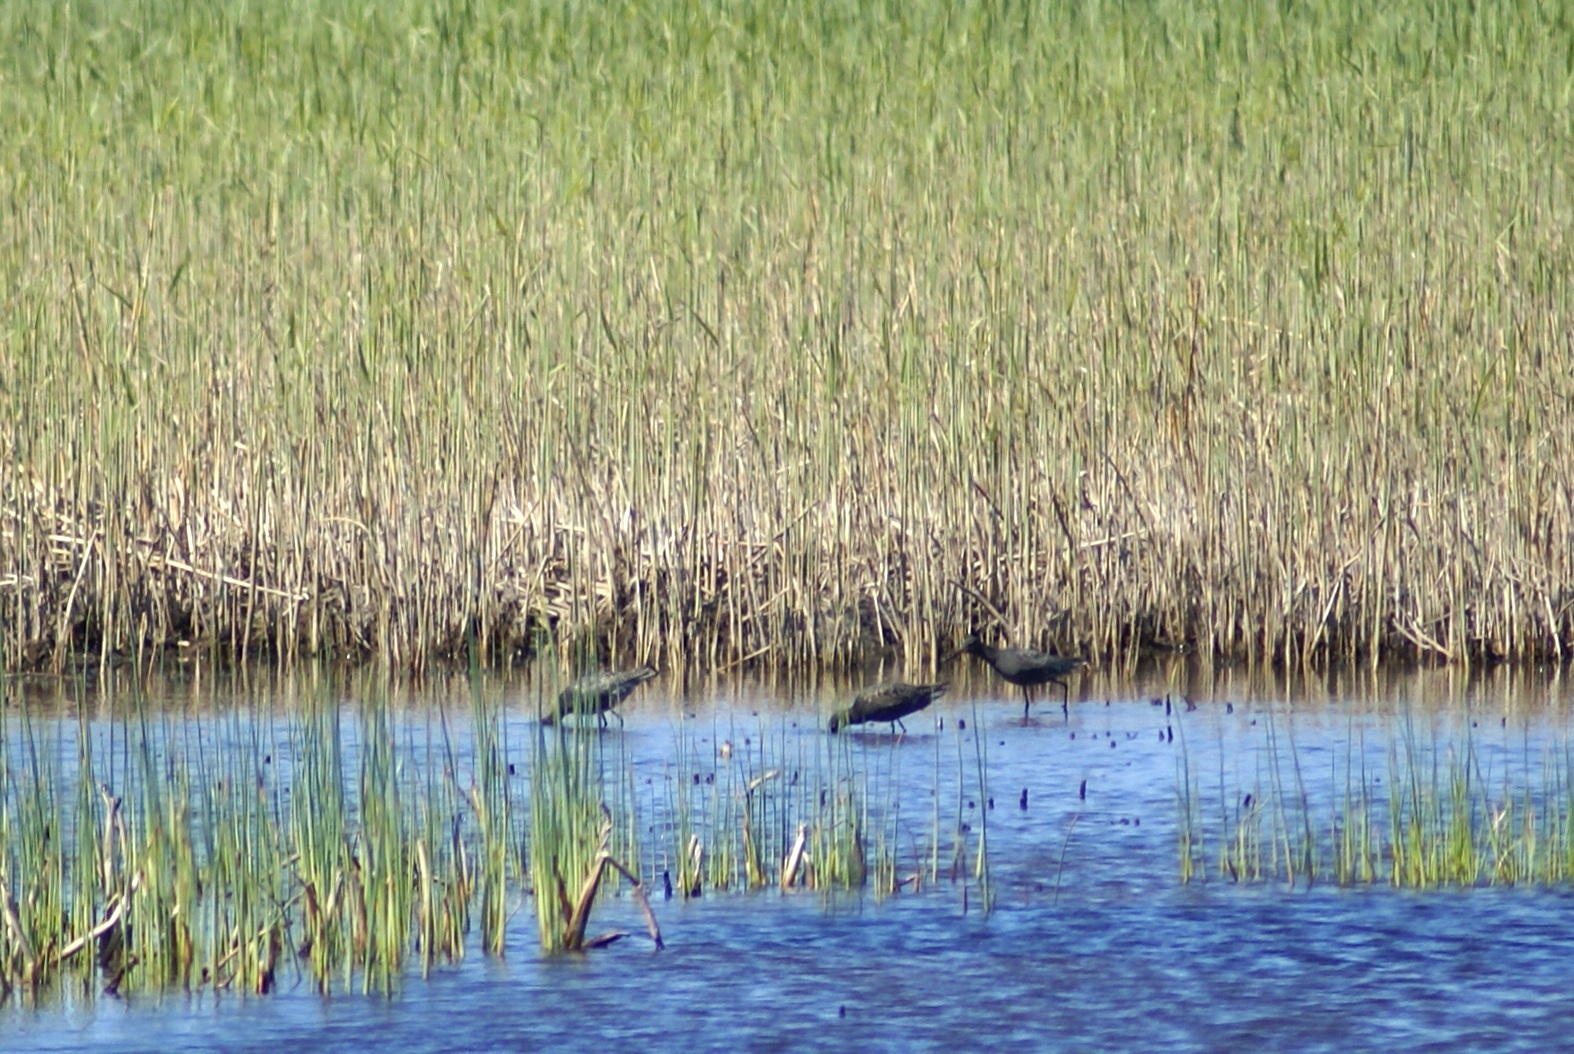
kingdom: Animalia
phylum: Chordata
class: Aves
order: Charadriiformes
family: Scolopacidae
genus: Tringa
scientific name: Tringa erythropus
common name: Spotted redshank
